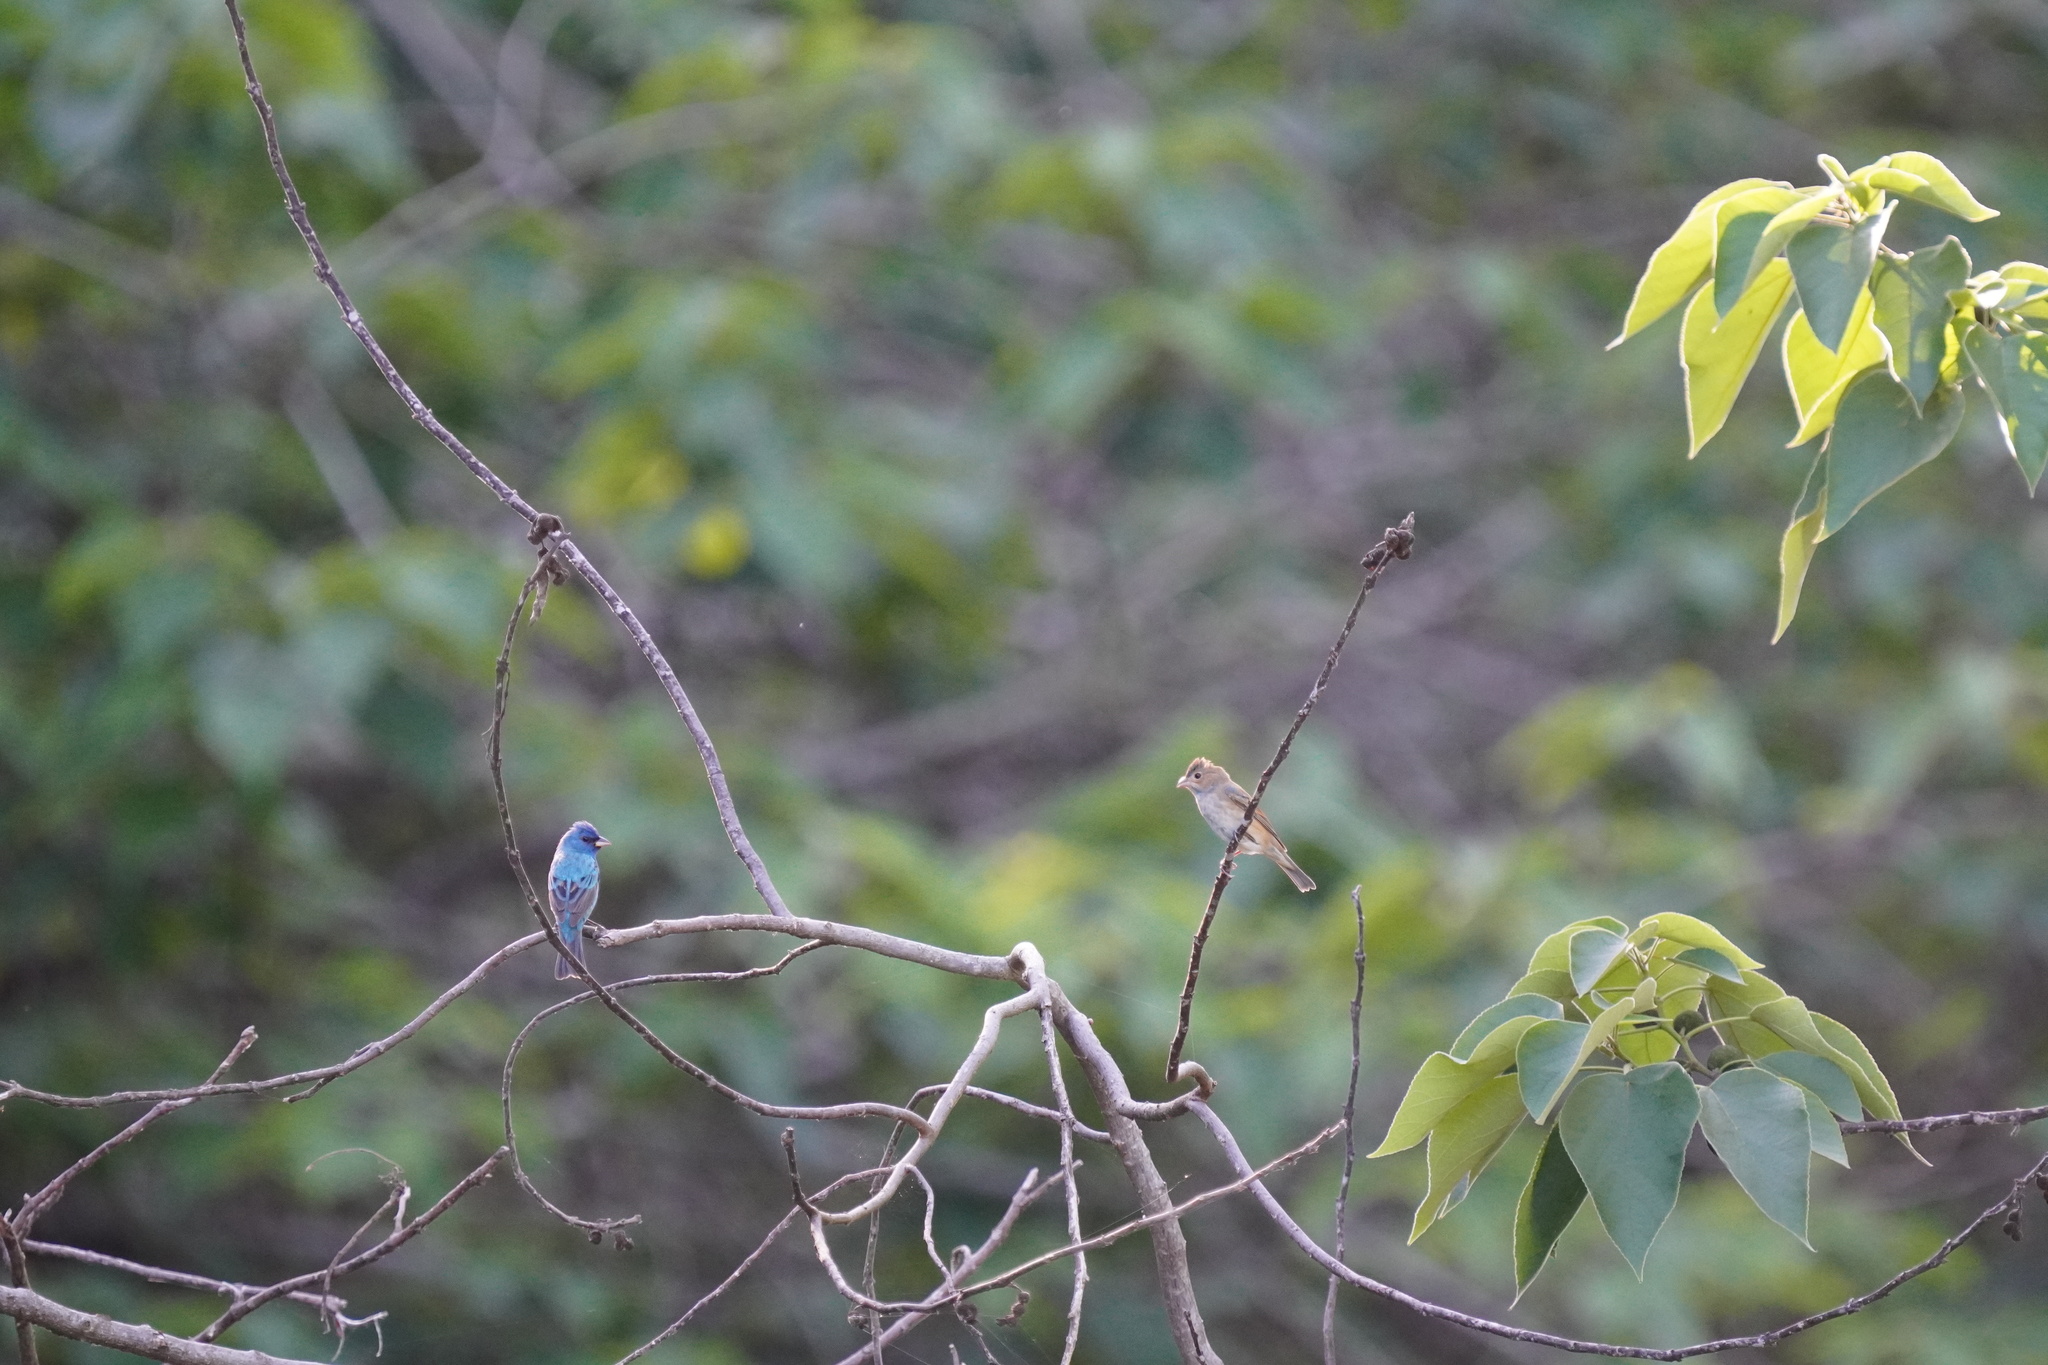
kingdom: Animalia
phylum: Chordata
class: Aves
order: Passeriformes
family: Cardinalidae
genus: Passerina
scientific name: Passerina cyanea
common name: Indigo bunting
